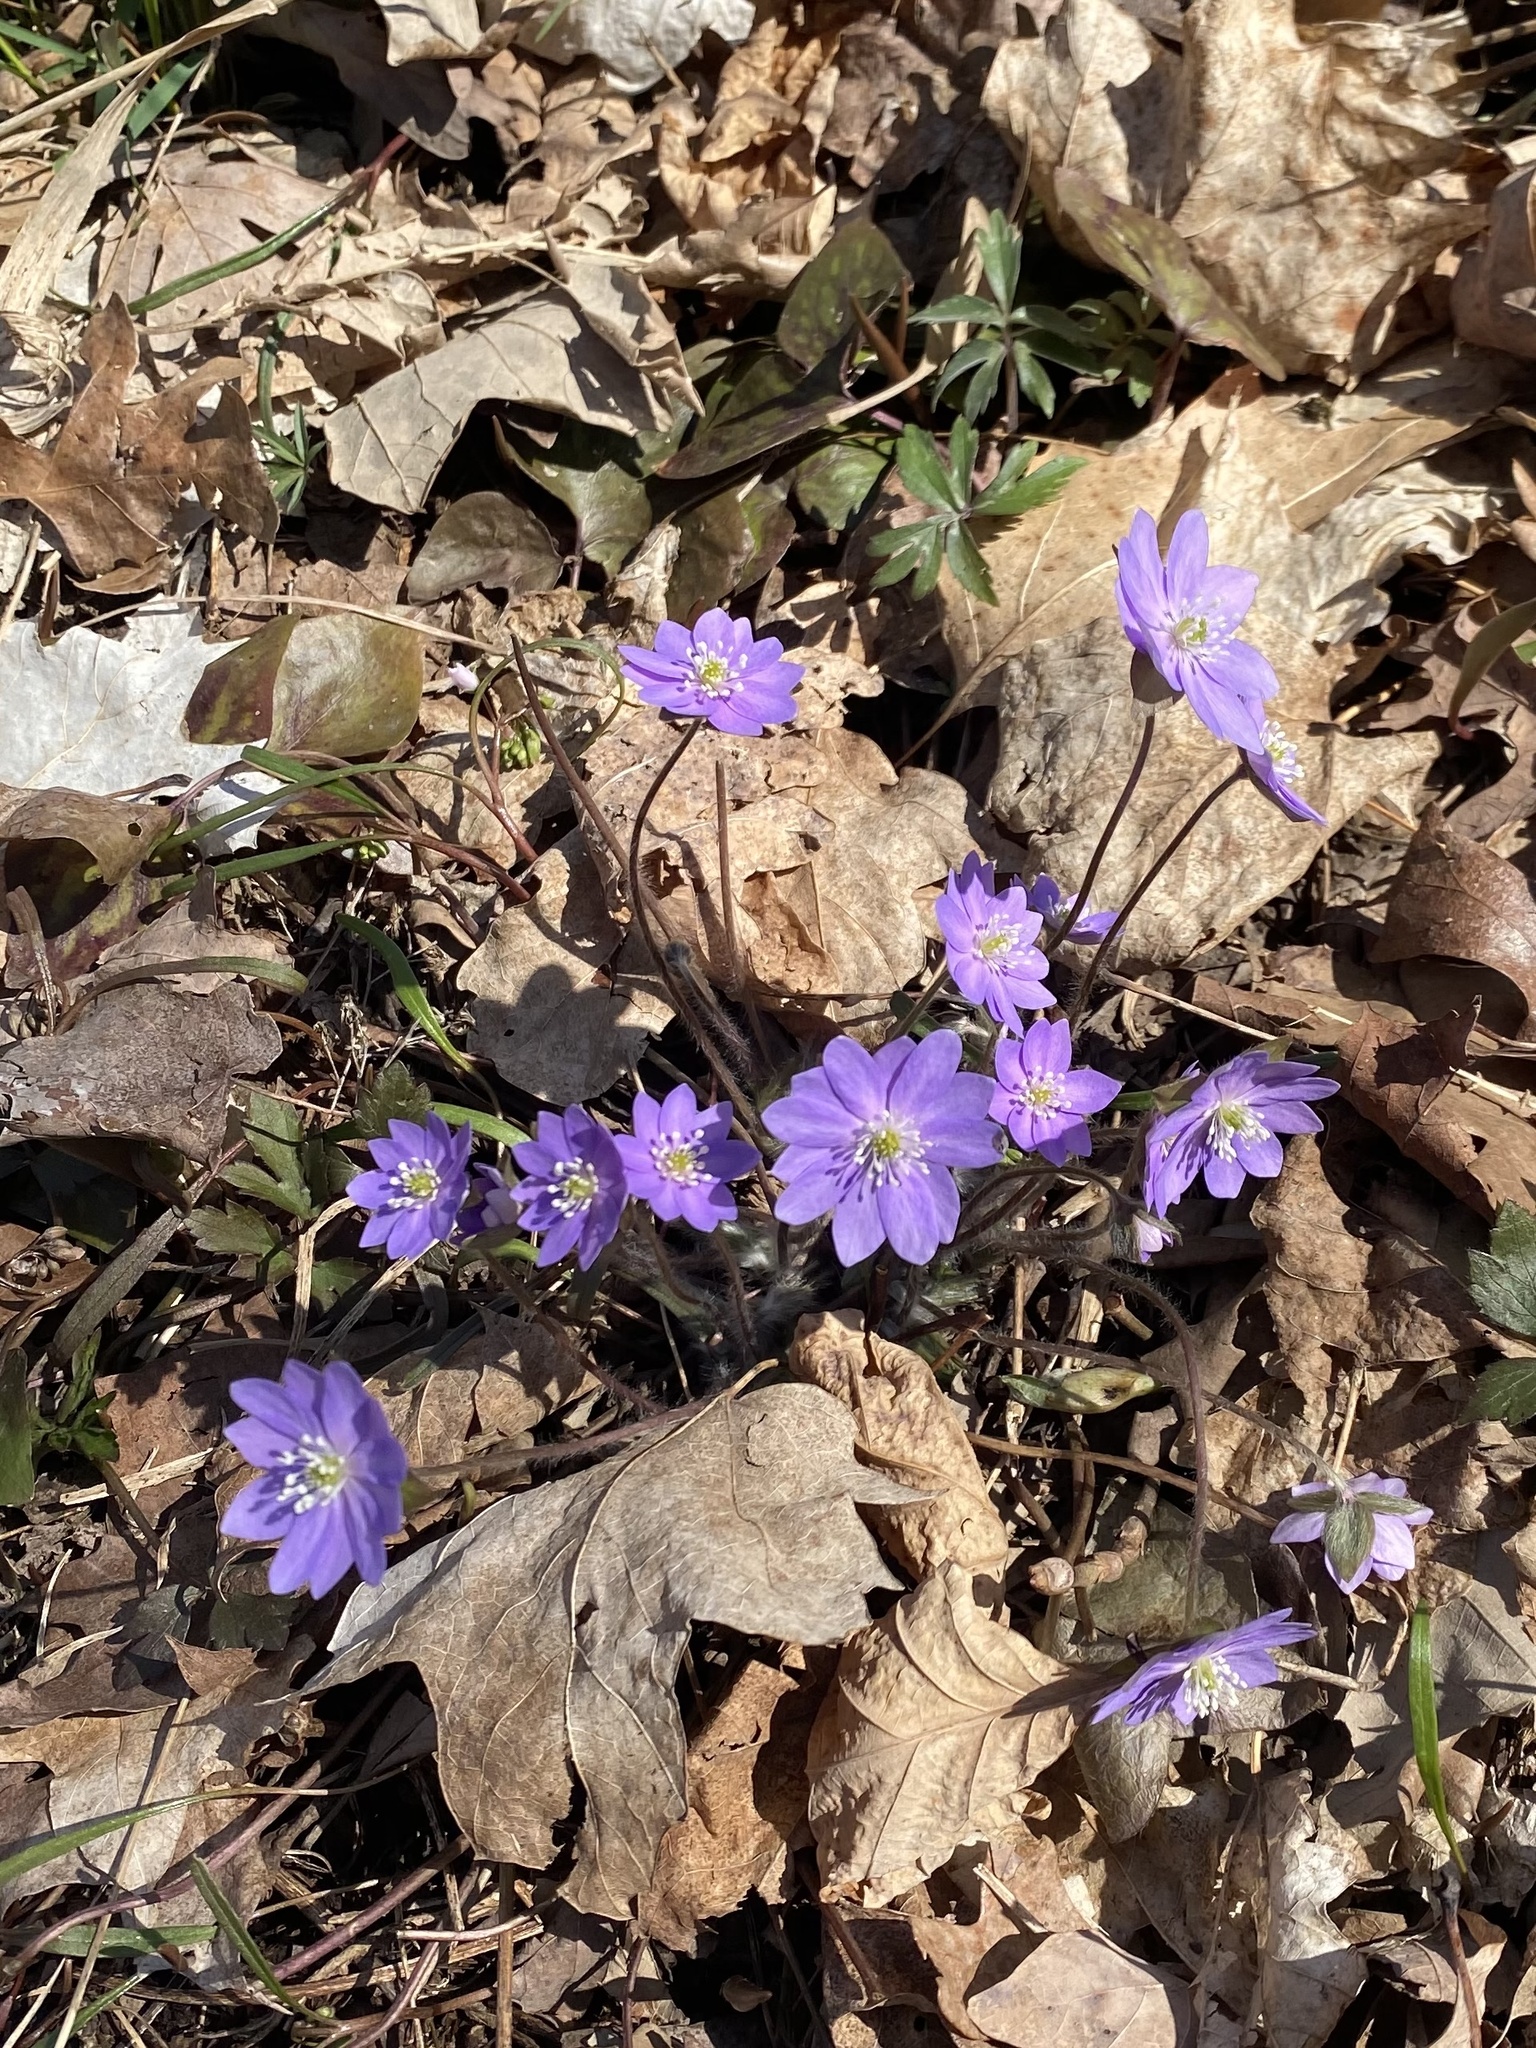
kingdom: Plantae
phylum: Tracheophyta
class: Magnoliopsida
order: Ranunculales
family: Ranunculaceae
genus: Hepatica
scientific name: Hepatica acutiloba
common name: Sharp-lobed hepatica
